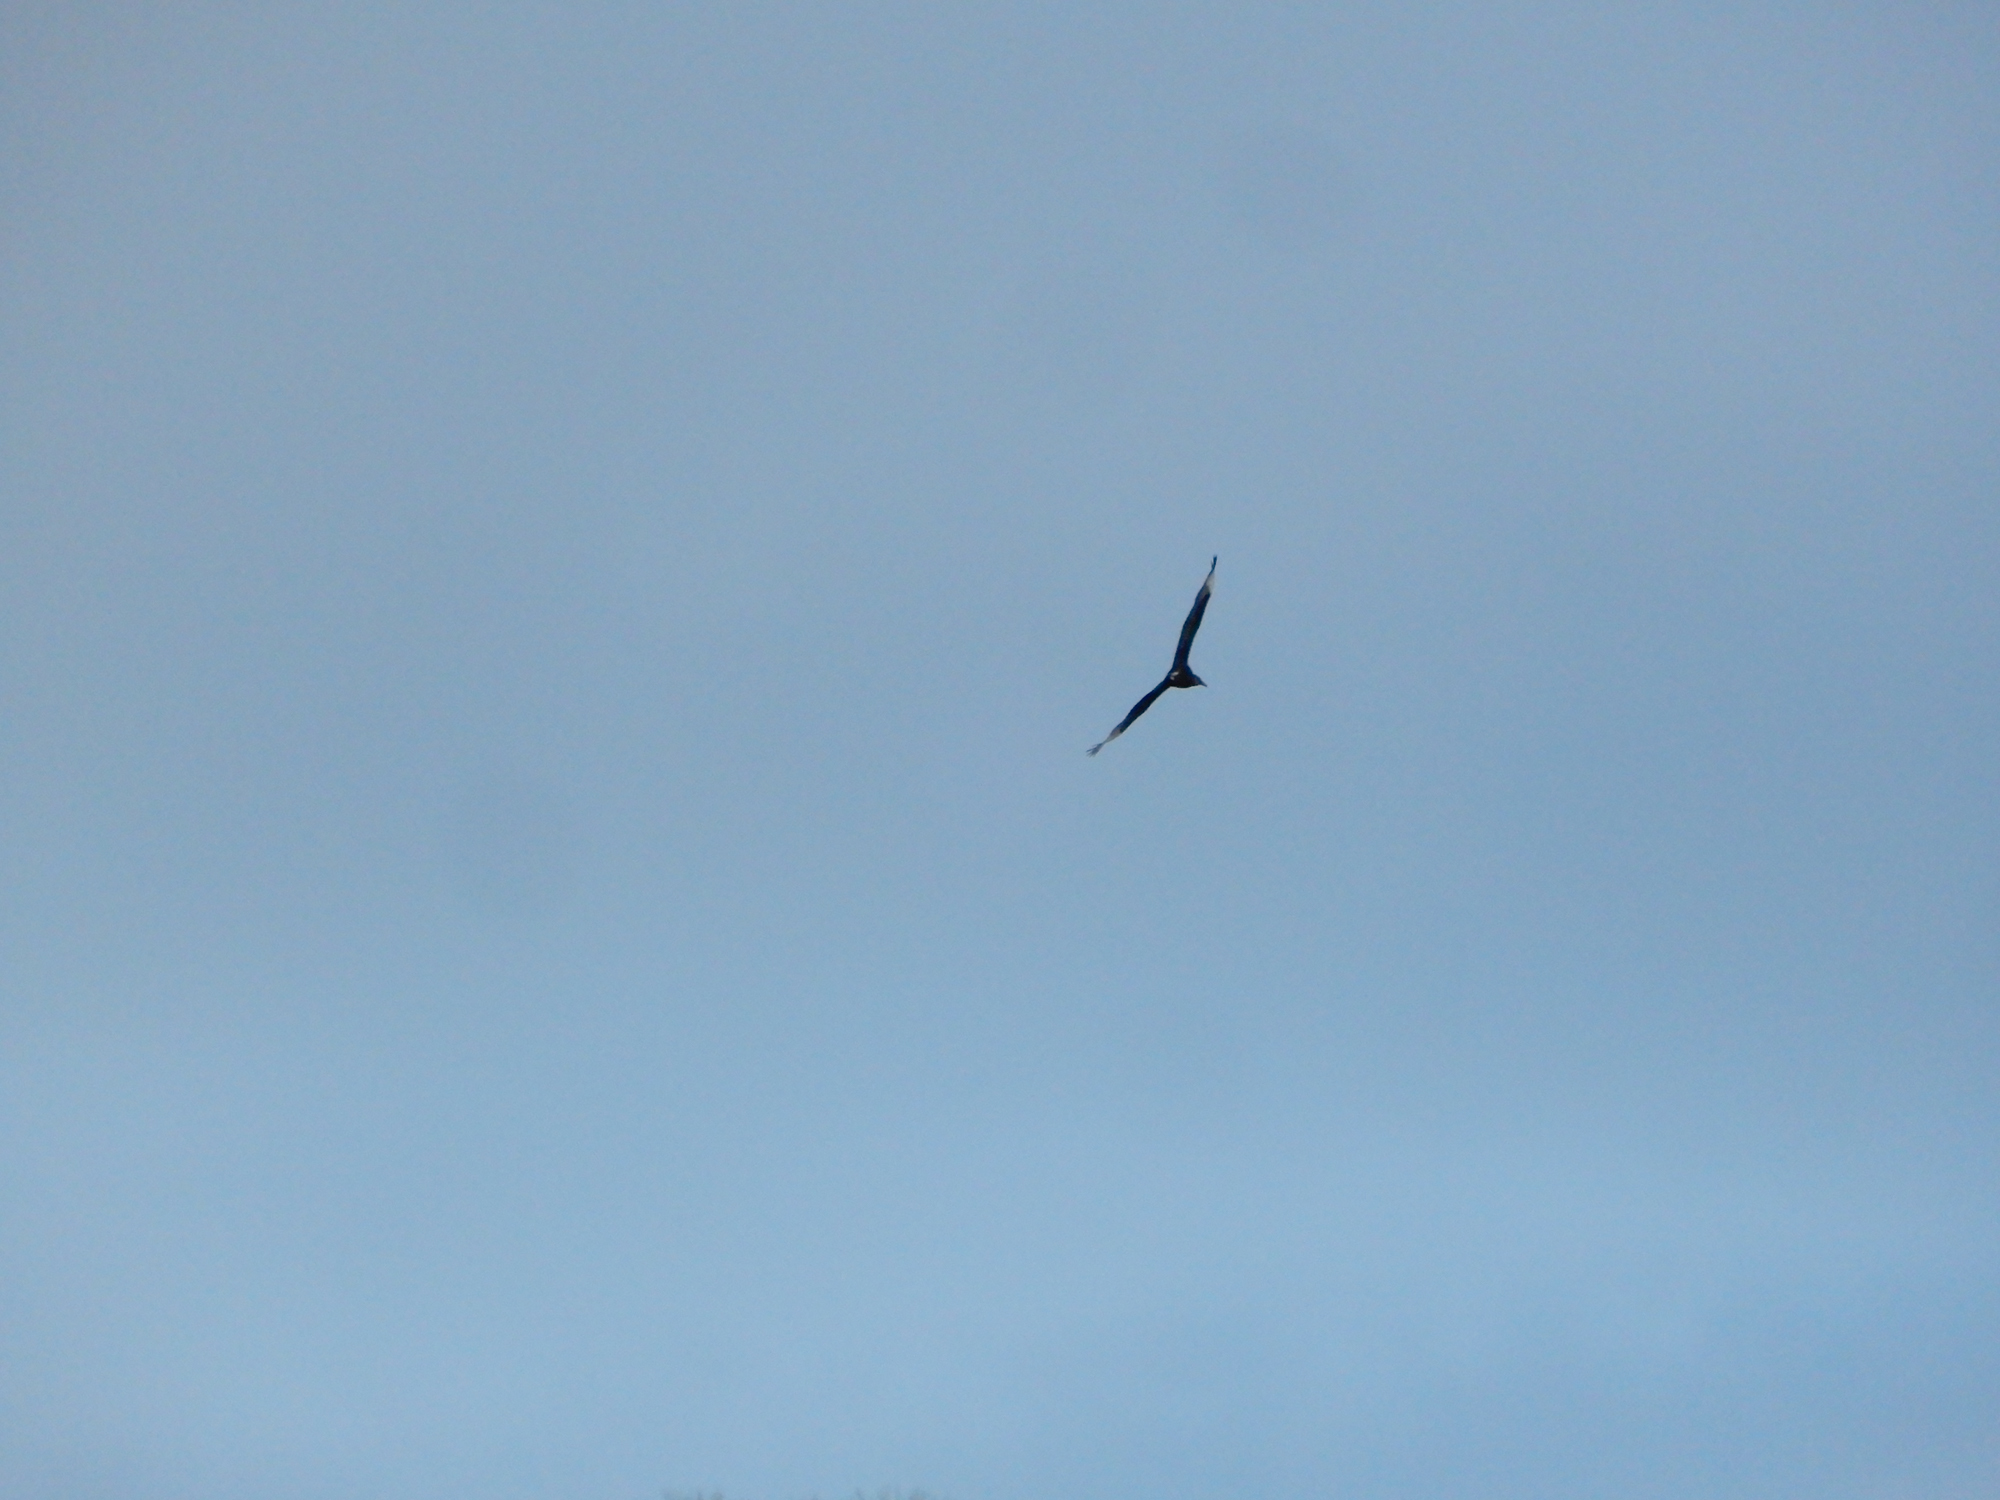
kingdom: Animalia
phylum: Chordata
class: Aves
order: Accipitriformes
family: Cathartidae
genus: Coragyps
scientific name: Coragyps atratus
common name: Black vulture
